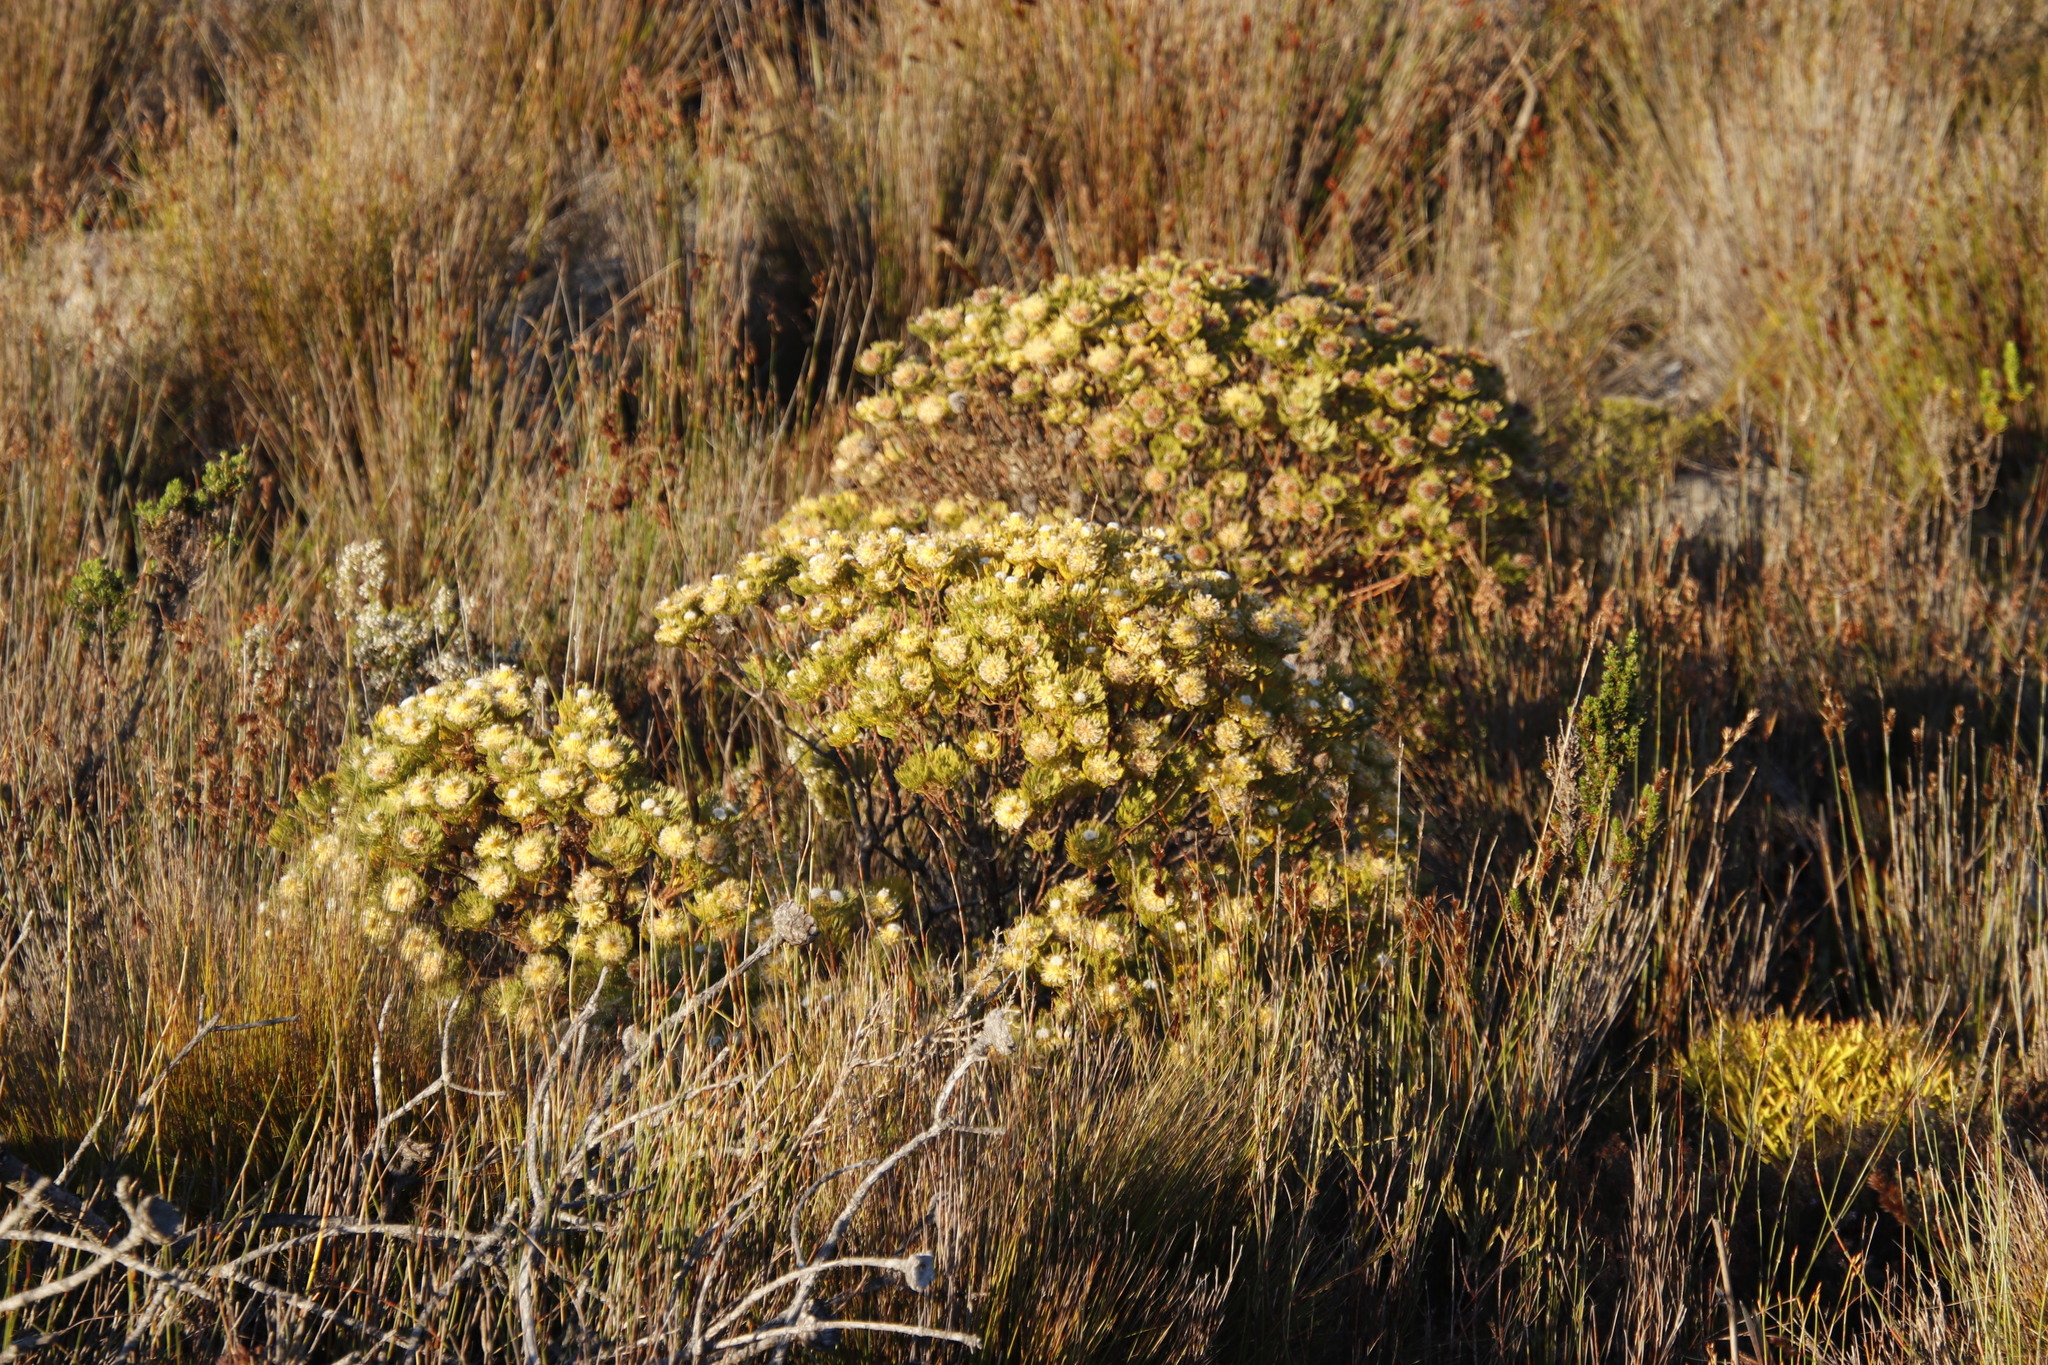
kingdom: Plantae
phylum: Tracheophyta
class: Magnoliopsida
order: Proteales
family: Proteaceae
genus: Serruria
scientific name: Serruria villosa
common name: Golden spiderhead
